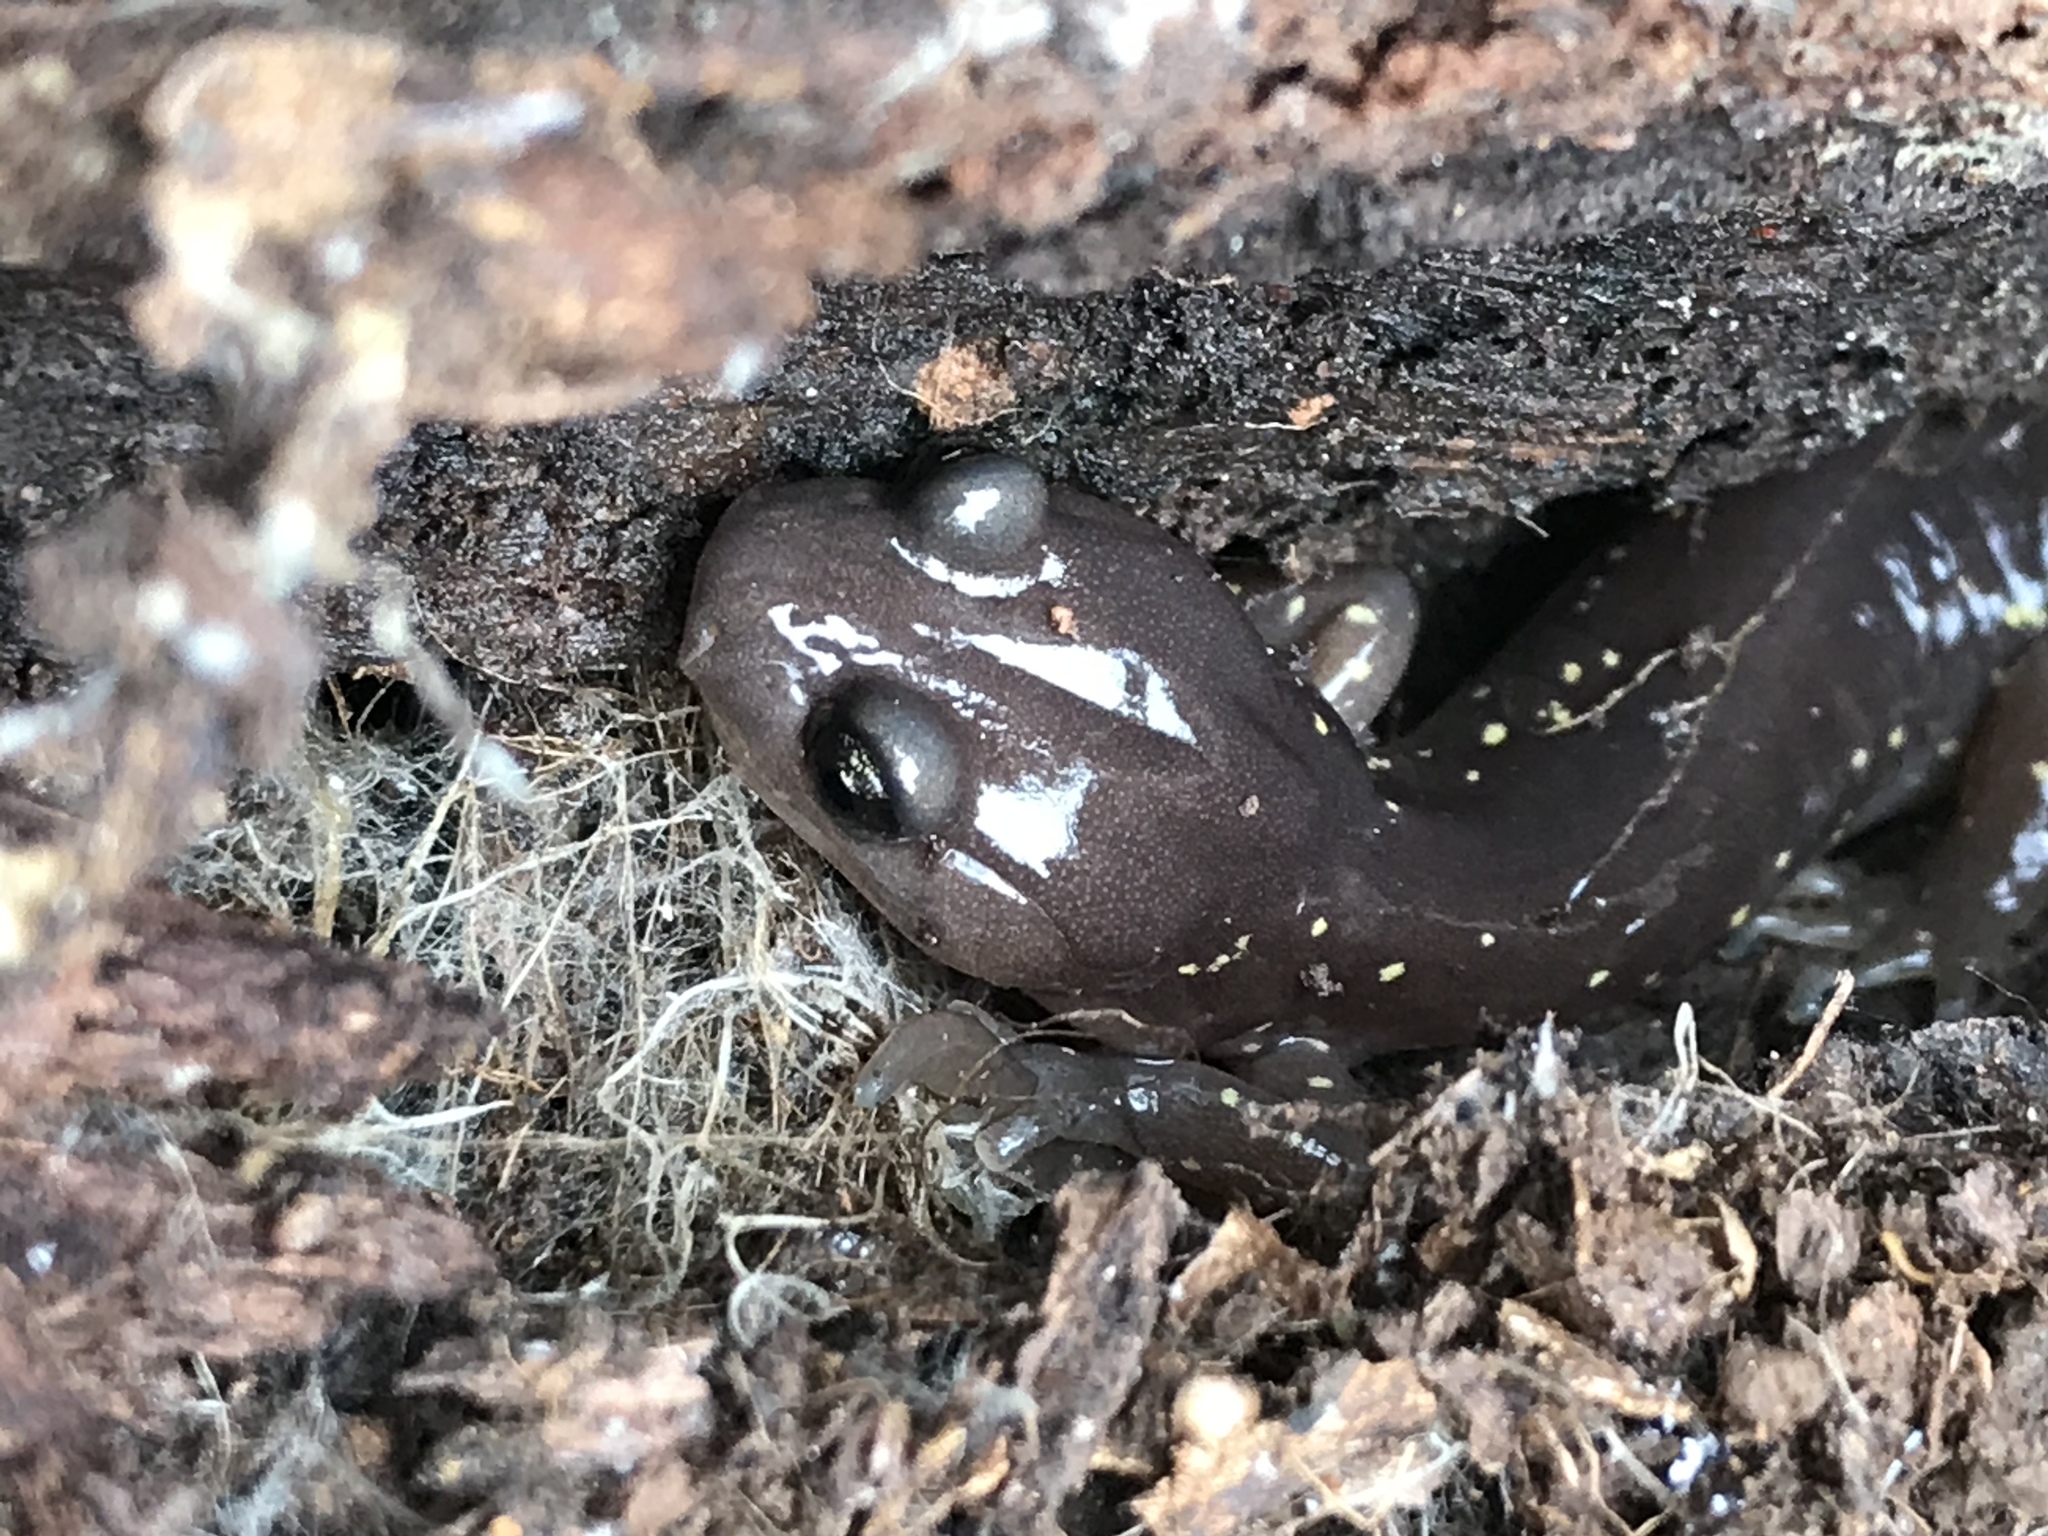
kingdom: Animalia
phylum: Chordata
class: Amphibia
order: Caudata
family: Plethodontidae
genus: Aneides
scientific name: Aneides lugubris
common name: Arboreal salamander
